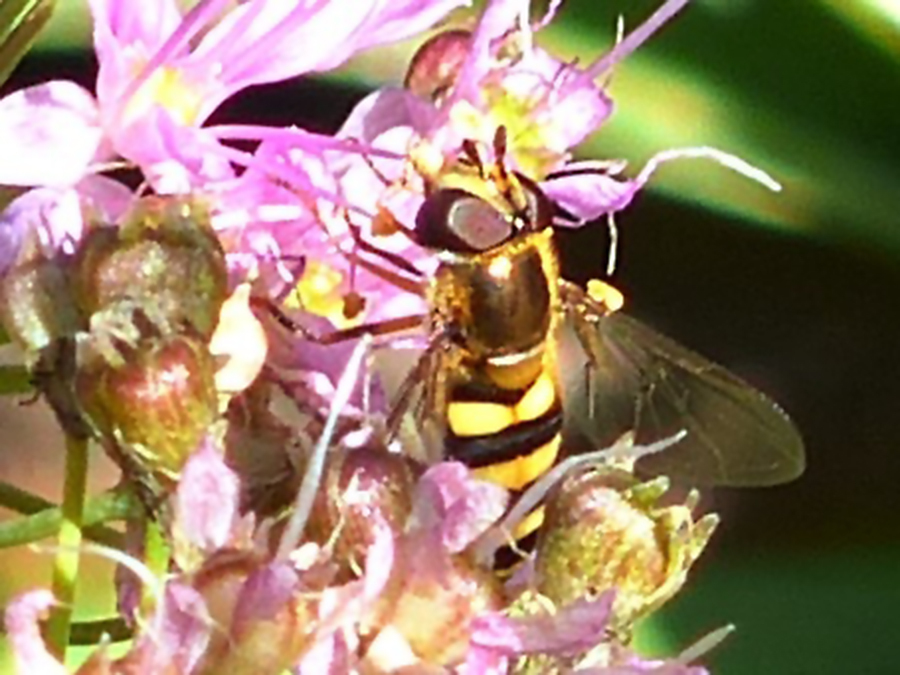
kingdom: Animalia
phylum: Arthropoda
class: Insecta
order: Diptera
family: Syrphidae
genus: Eupeodes
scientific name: Eupeodes
